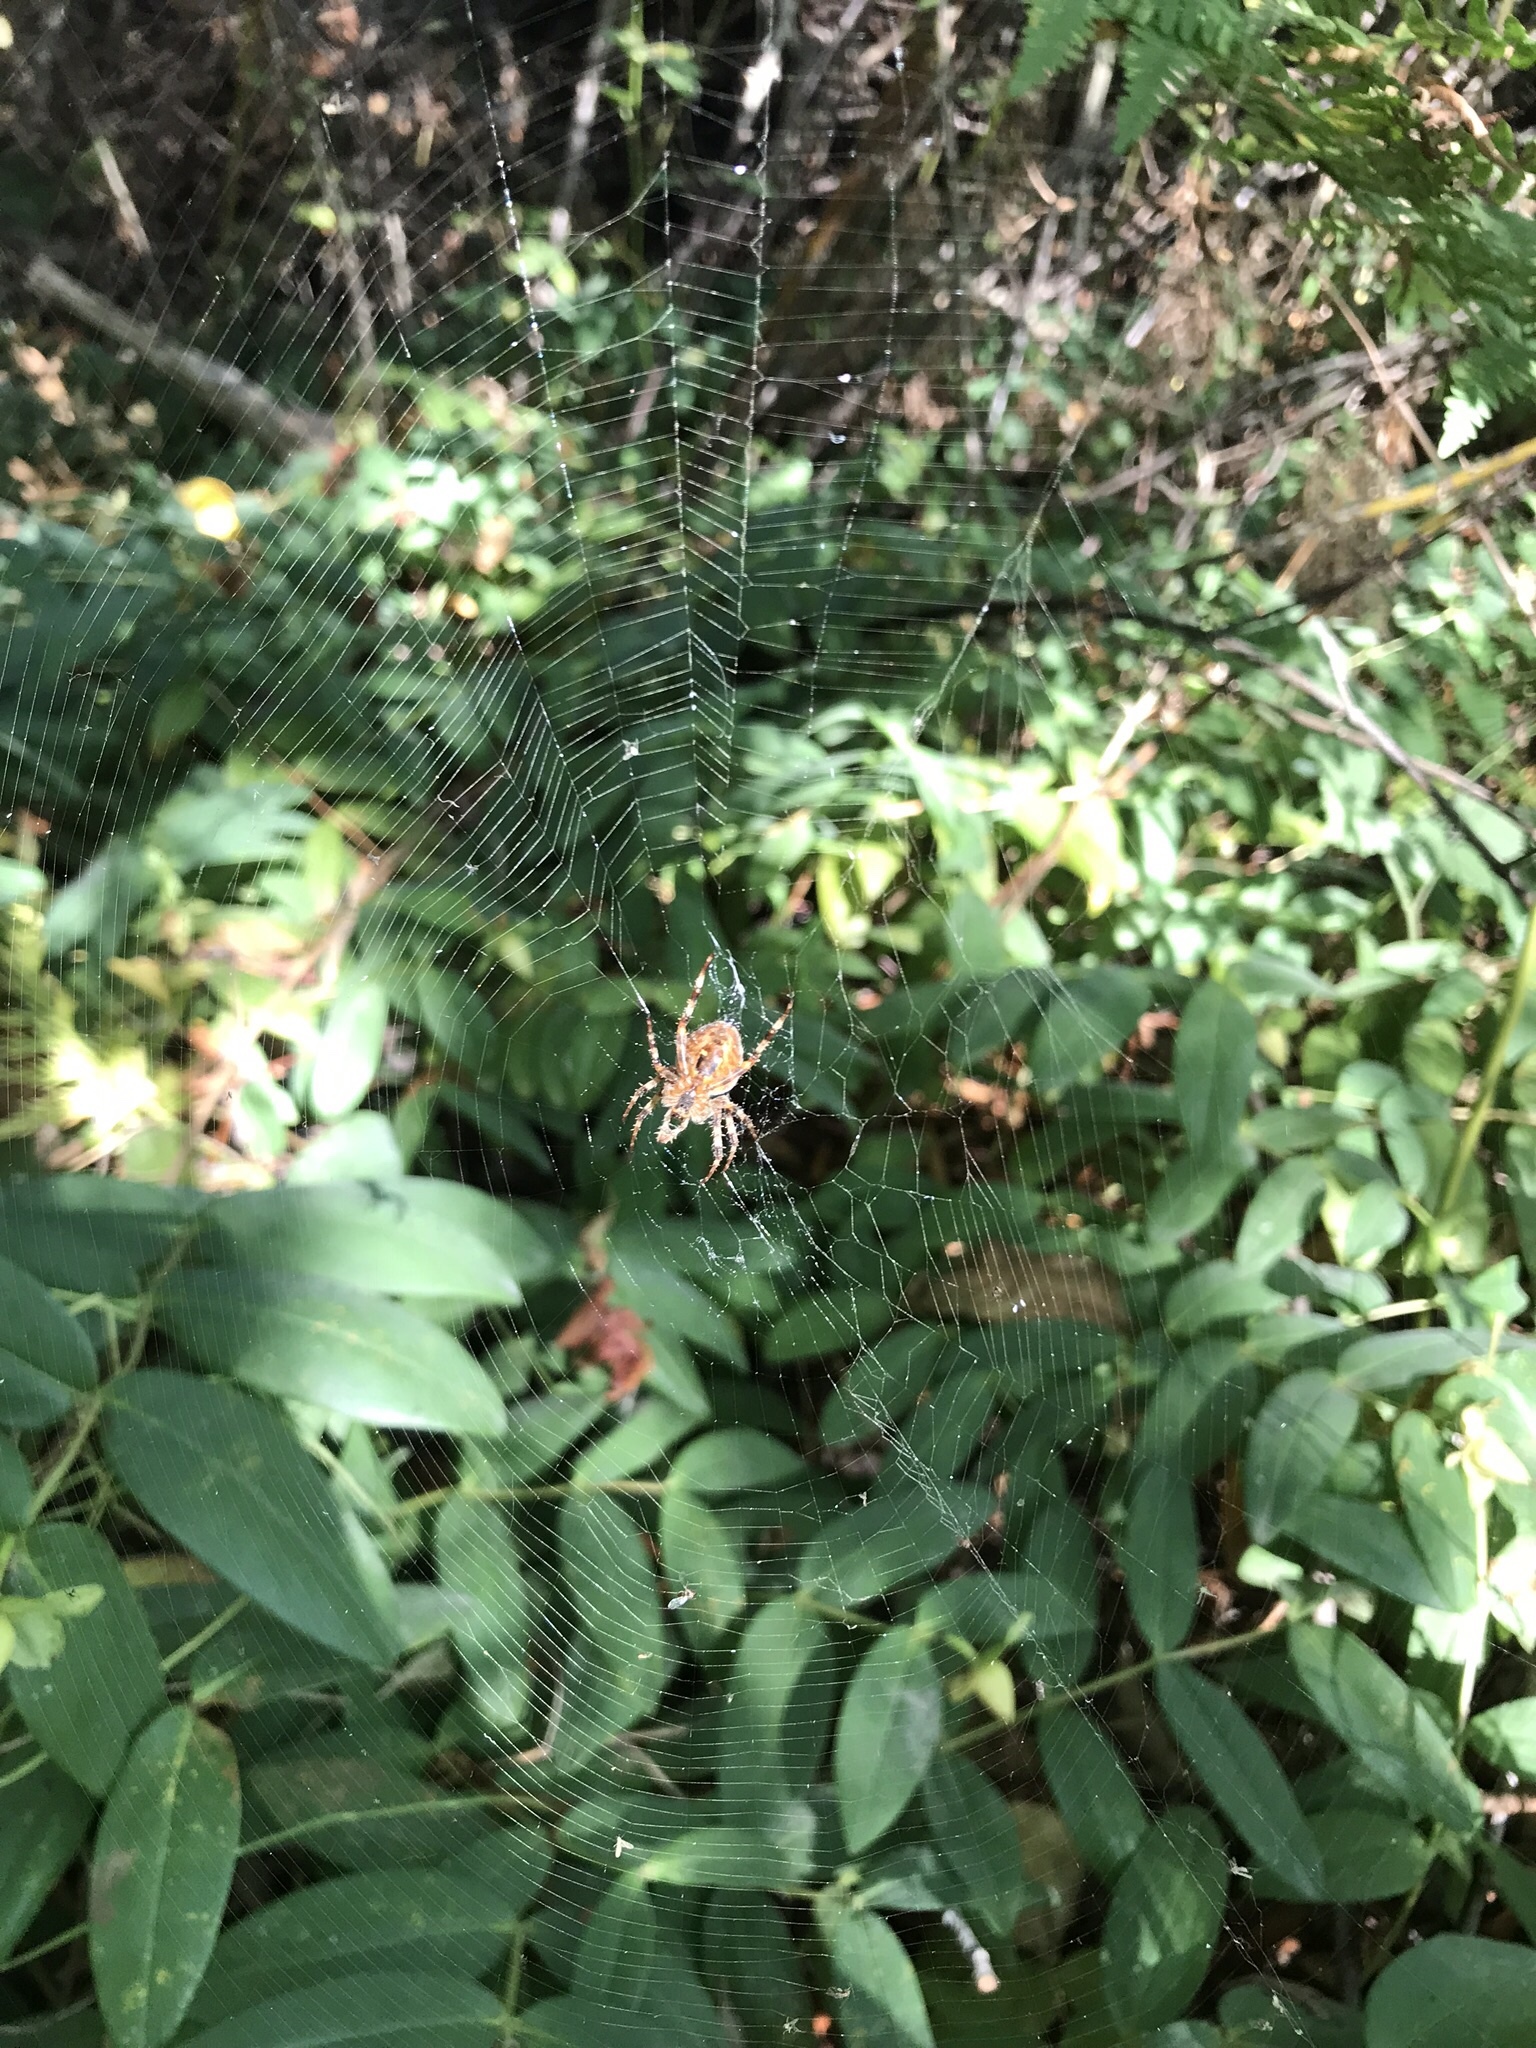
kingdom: Animalia
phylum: Arthropoda
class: Arachnida
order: Araneae
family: Araneidae
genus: Araneus
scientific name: Araneus diadematus
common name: Cross orbweaver
